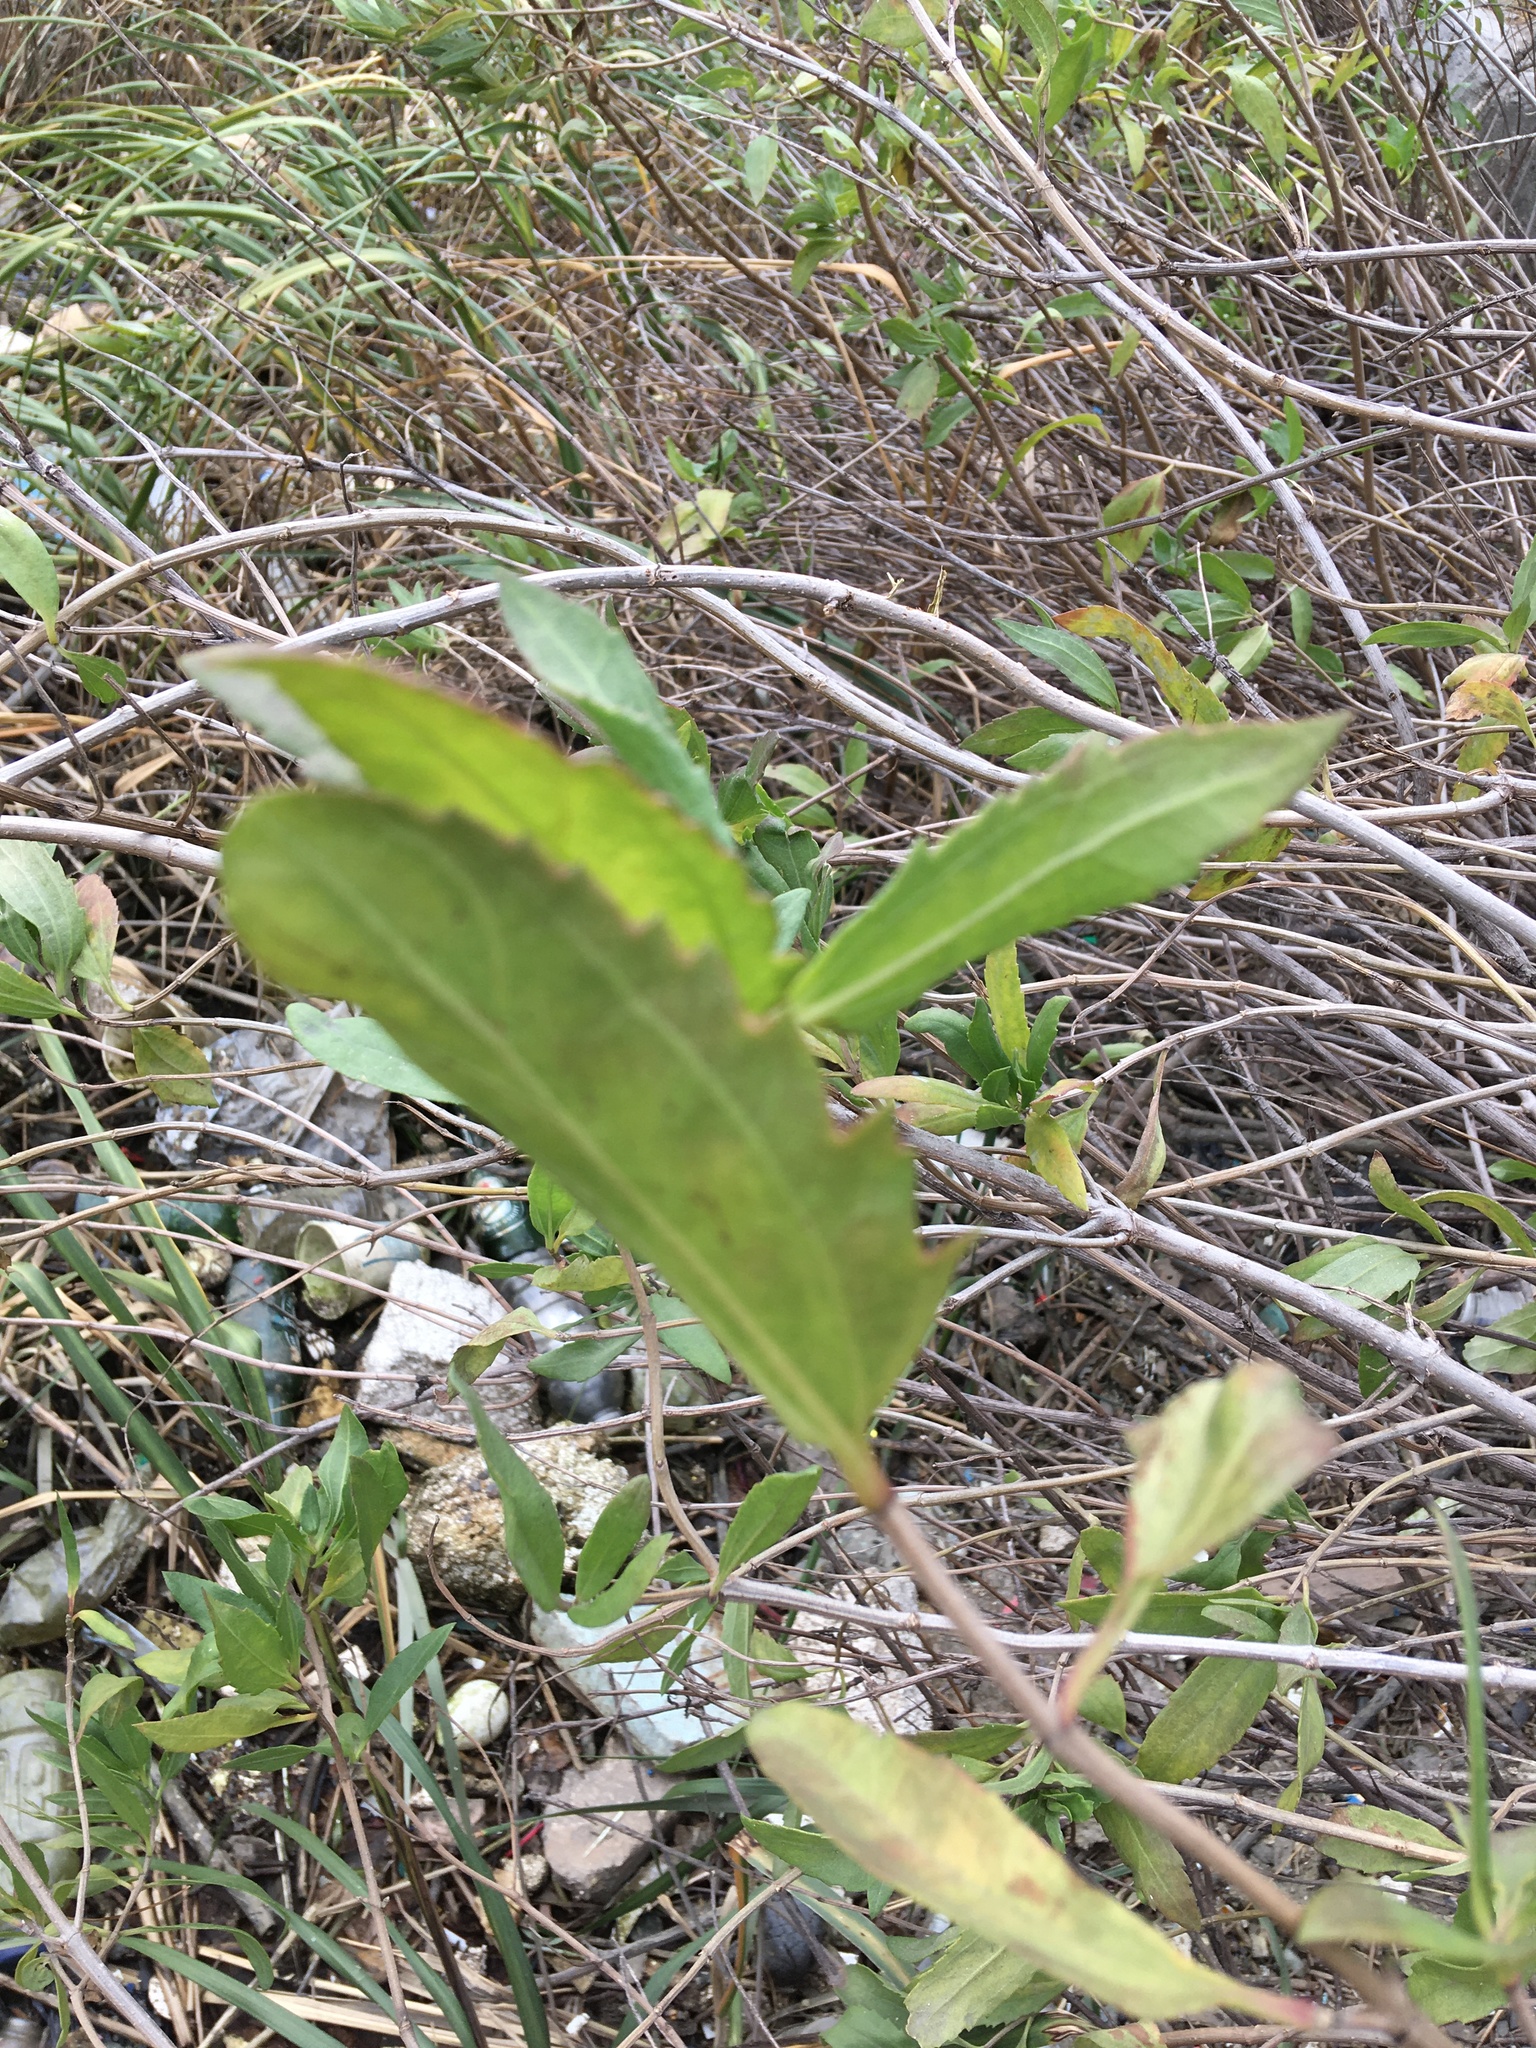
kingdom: Plantae
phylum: Tracheophyta
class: Magnoliopsida
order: Asterales
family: Asteraceae
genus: Iva
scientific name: Iva frutescens
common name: Big-leaved marsh-elder
